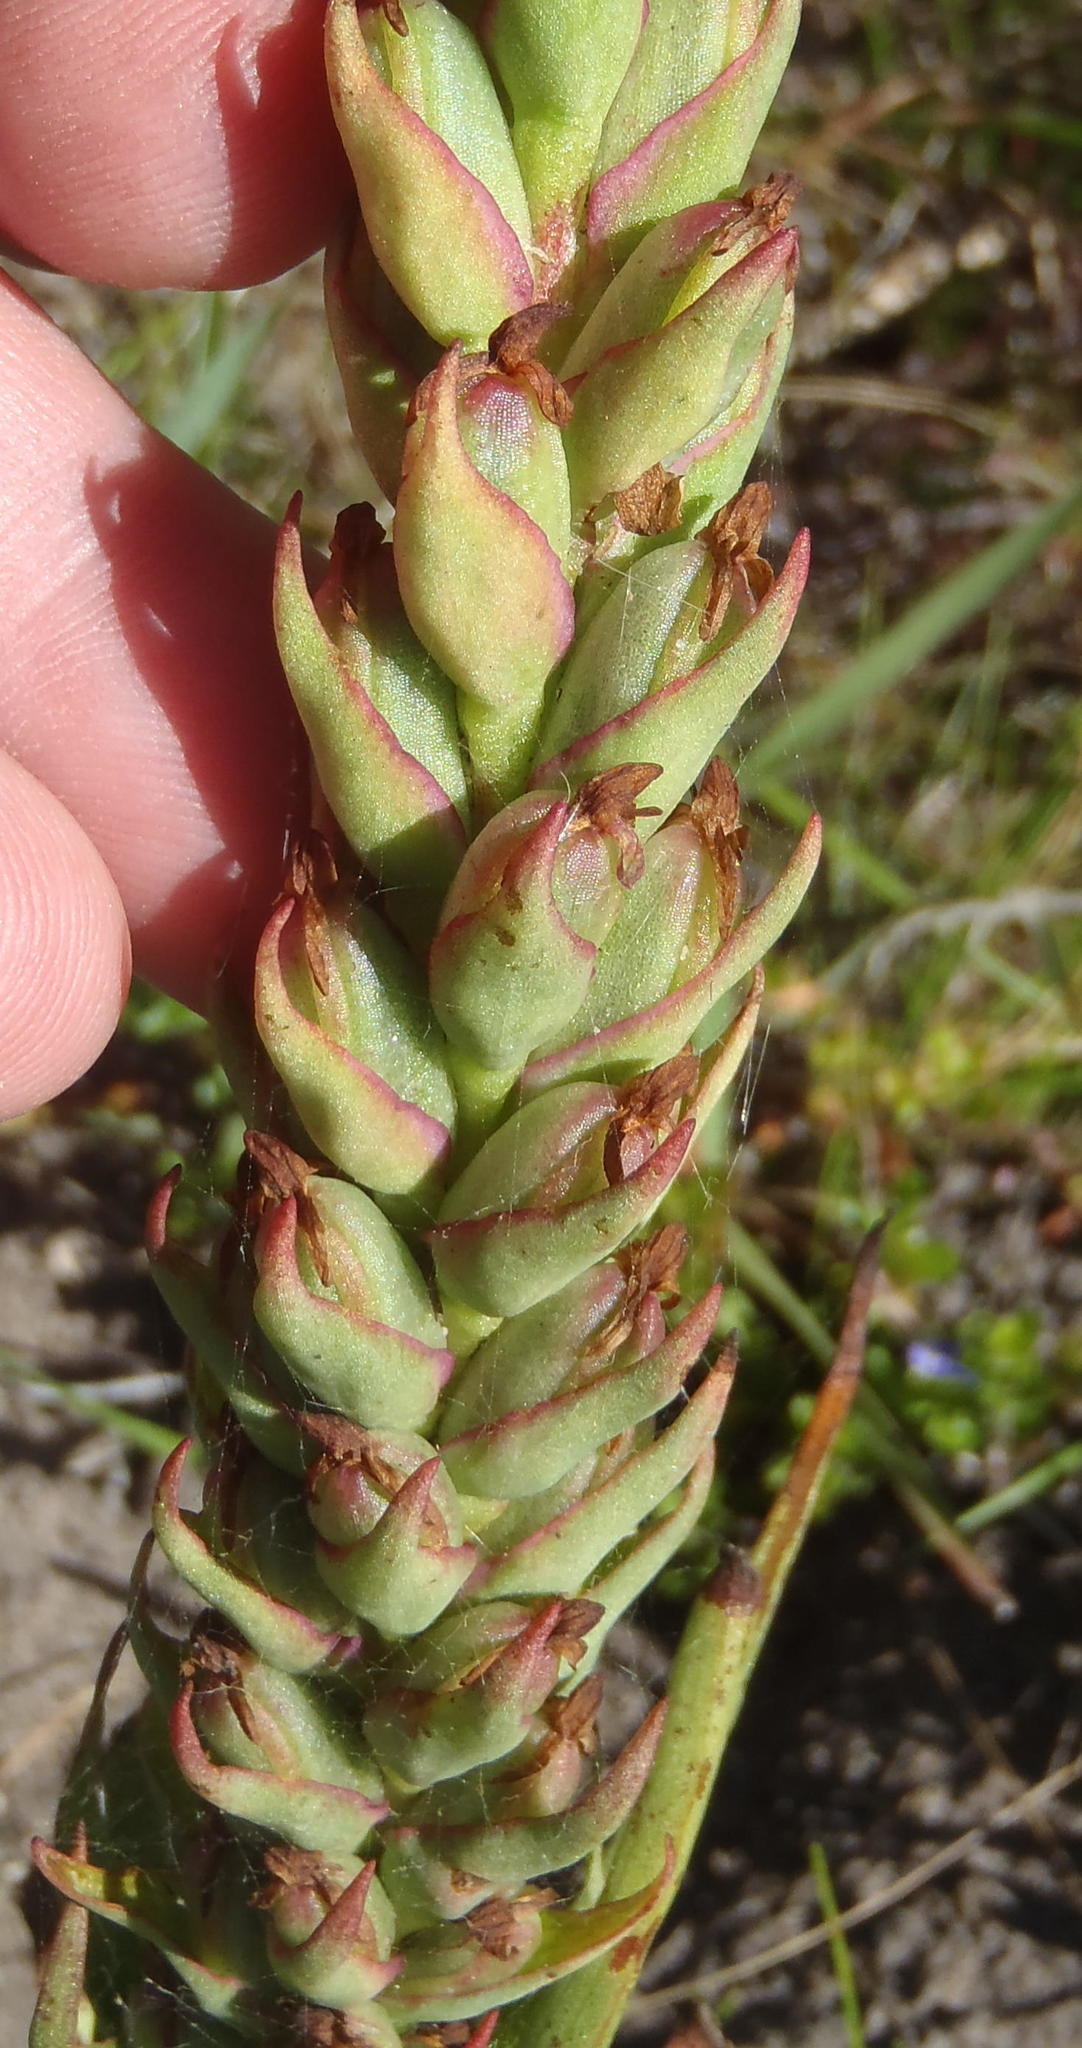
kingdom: Plantae
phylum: Tracheophyta
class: Liliopsida
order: Asparagales
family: Orchidaceae
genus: Disa
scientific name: Disa bracteata
